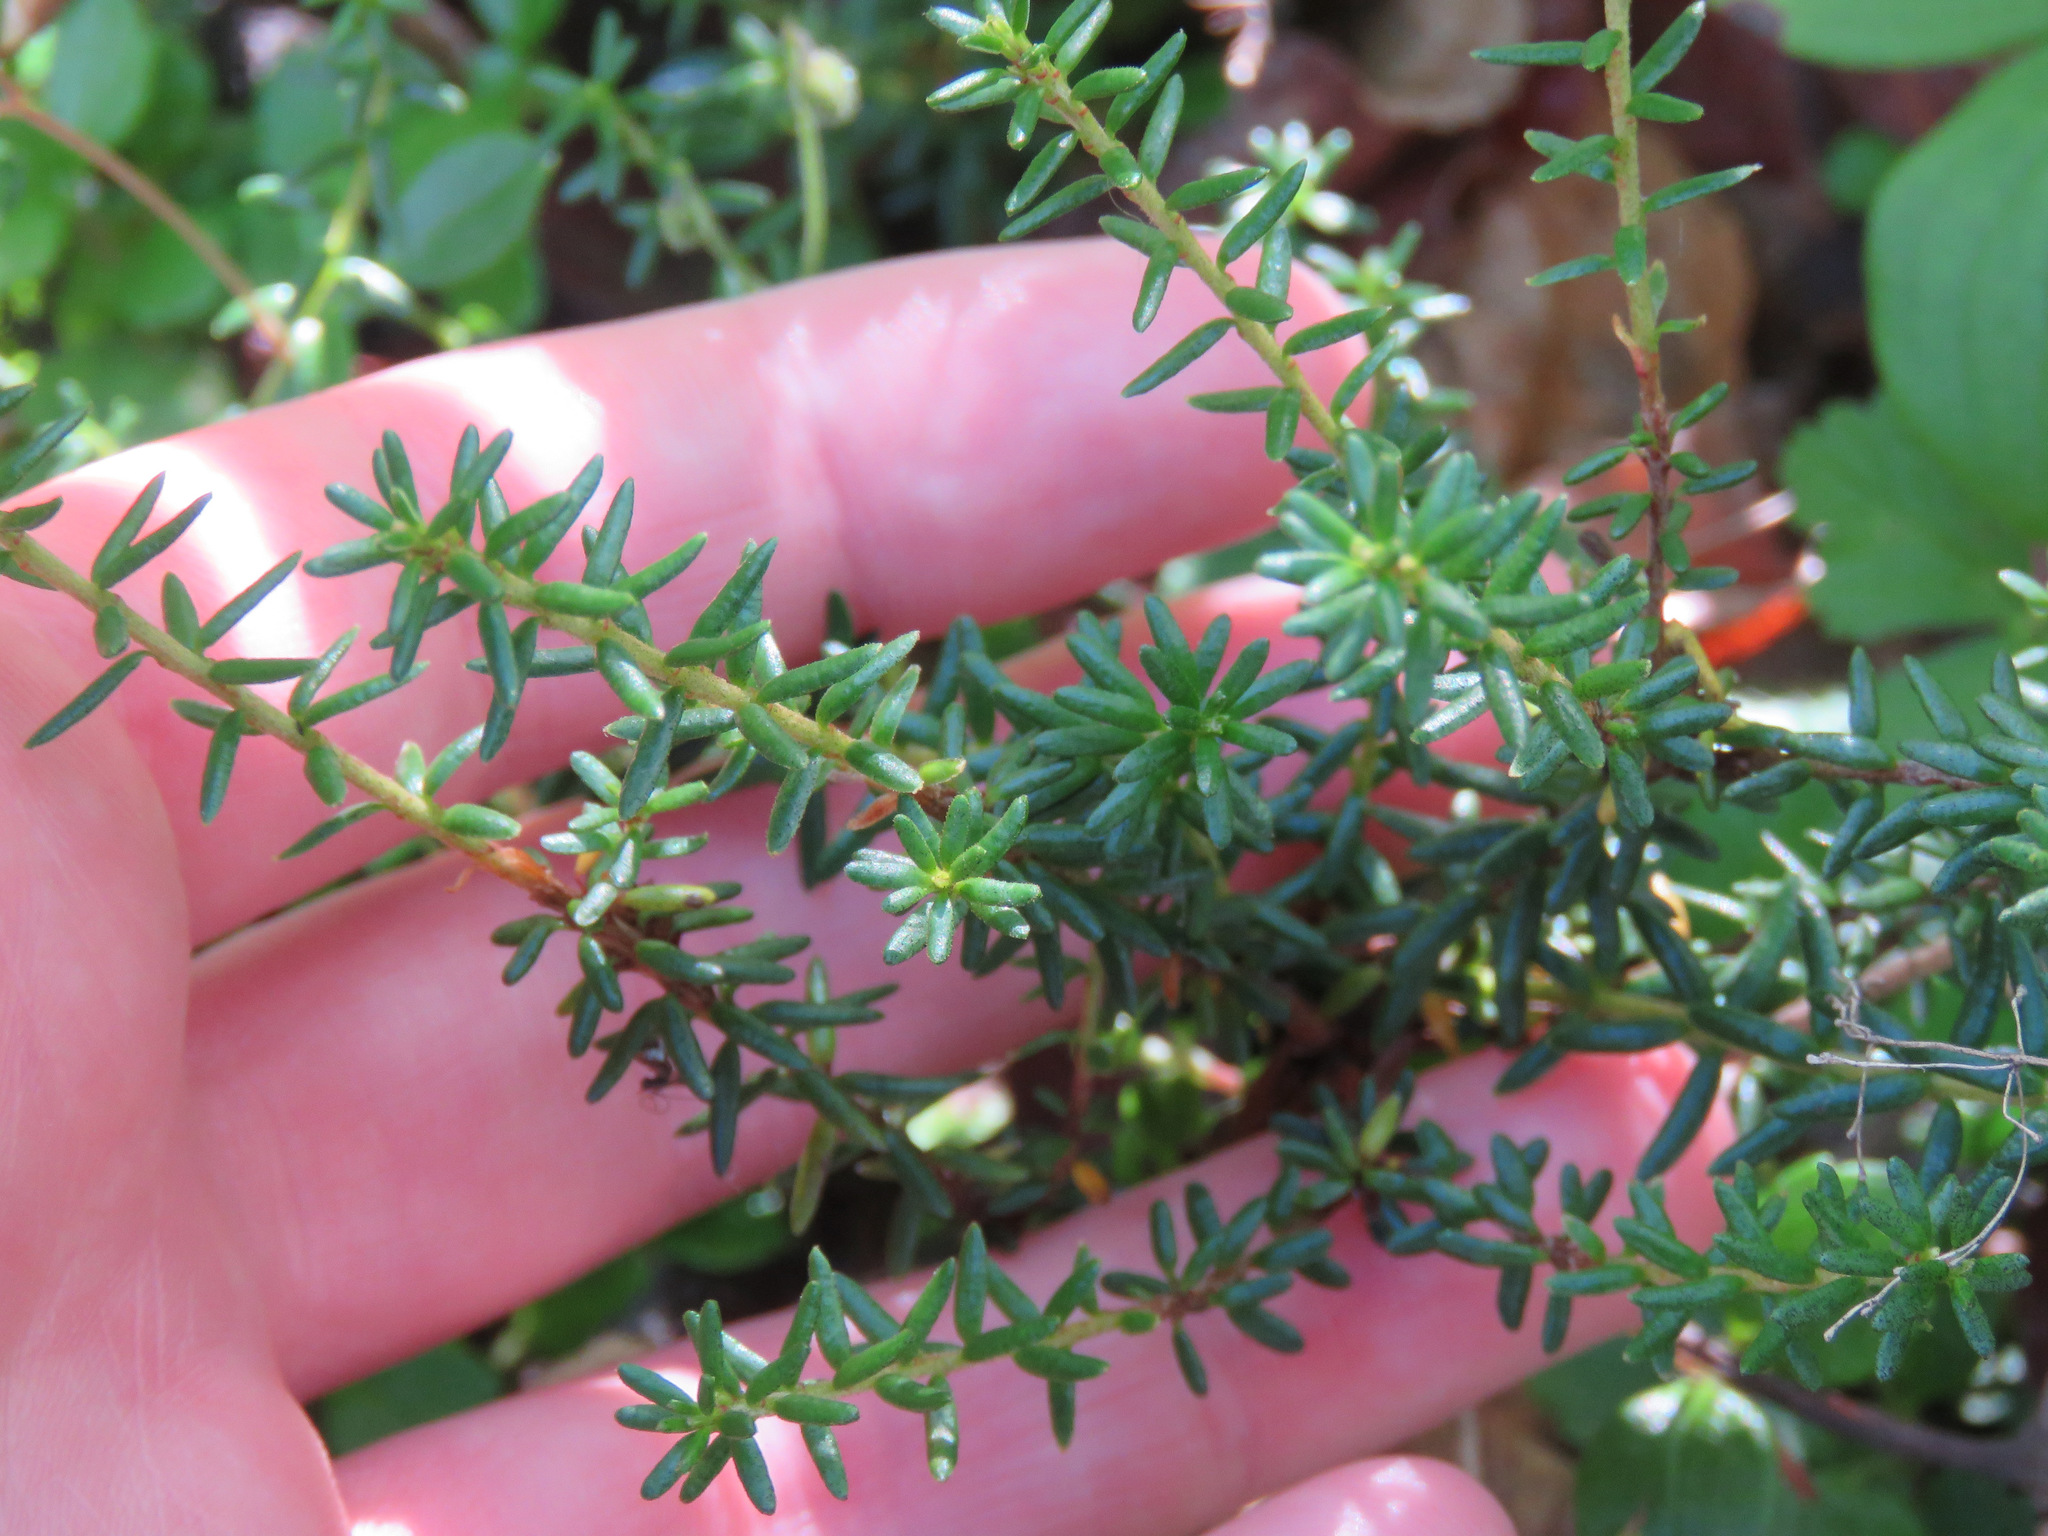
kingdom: Plantae
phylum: Tracheophyta
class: Magnoliopsida
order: Ericales
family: Ericaceae
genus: Empetrum
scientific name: Empetrum nigrum
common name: Black crowberry
